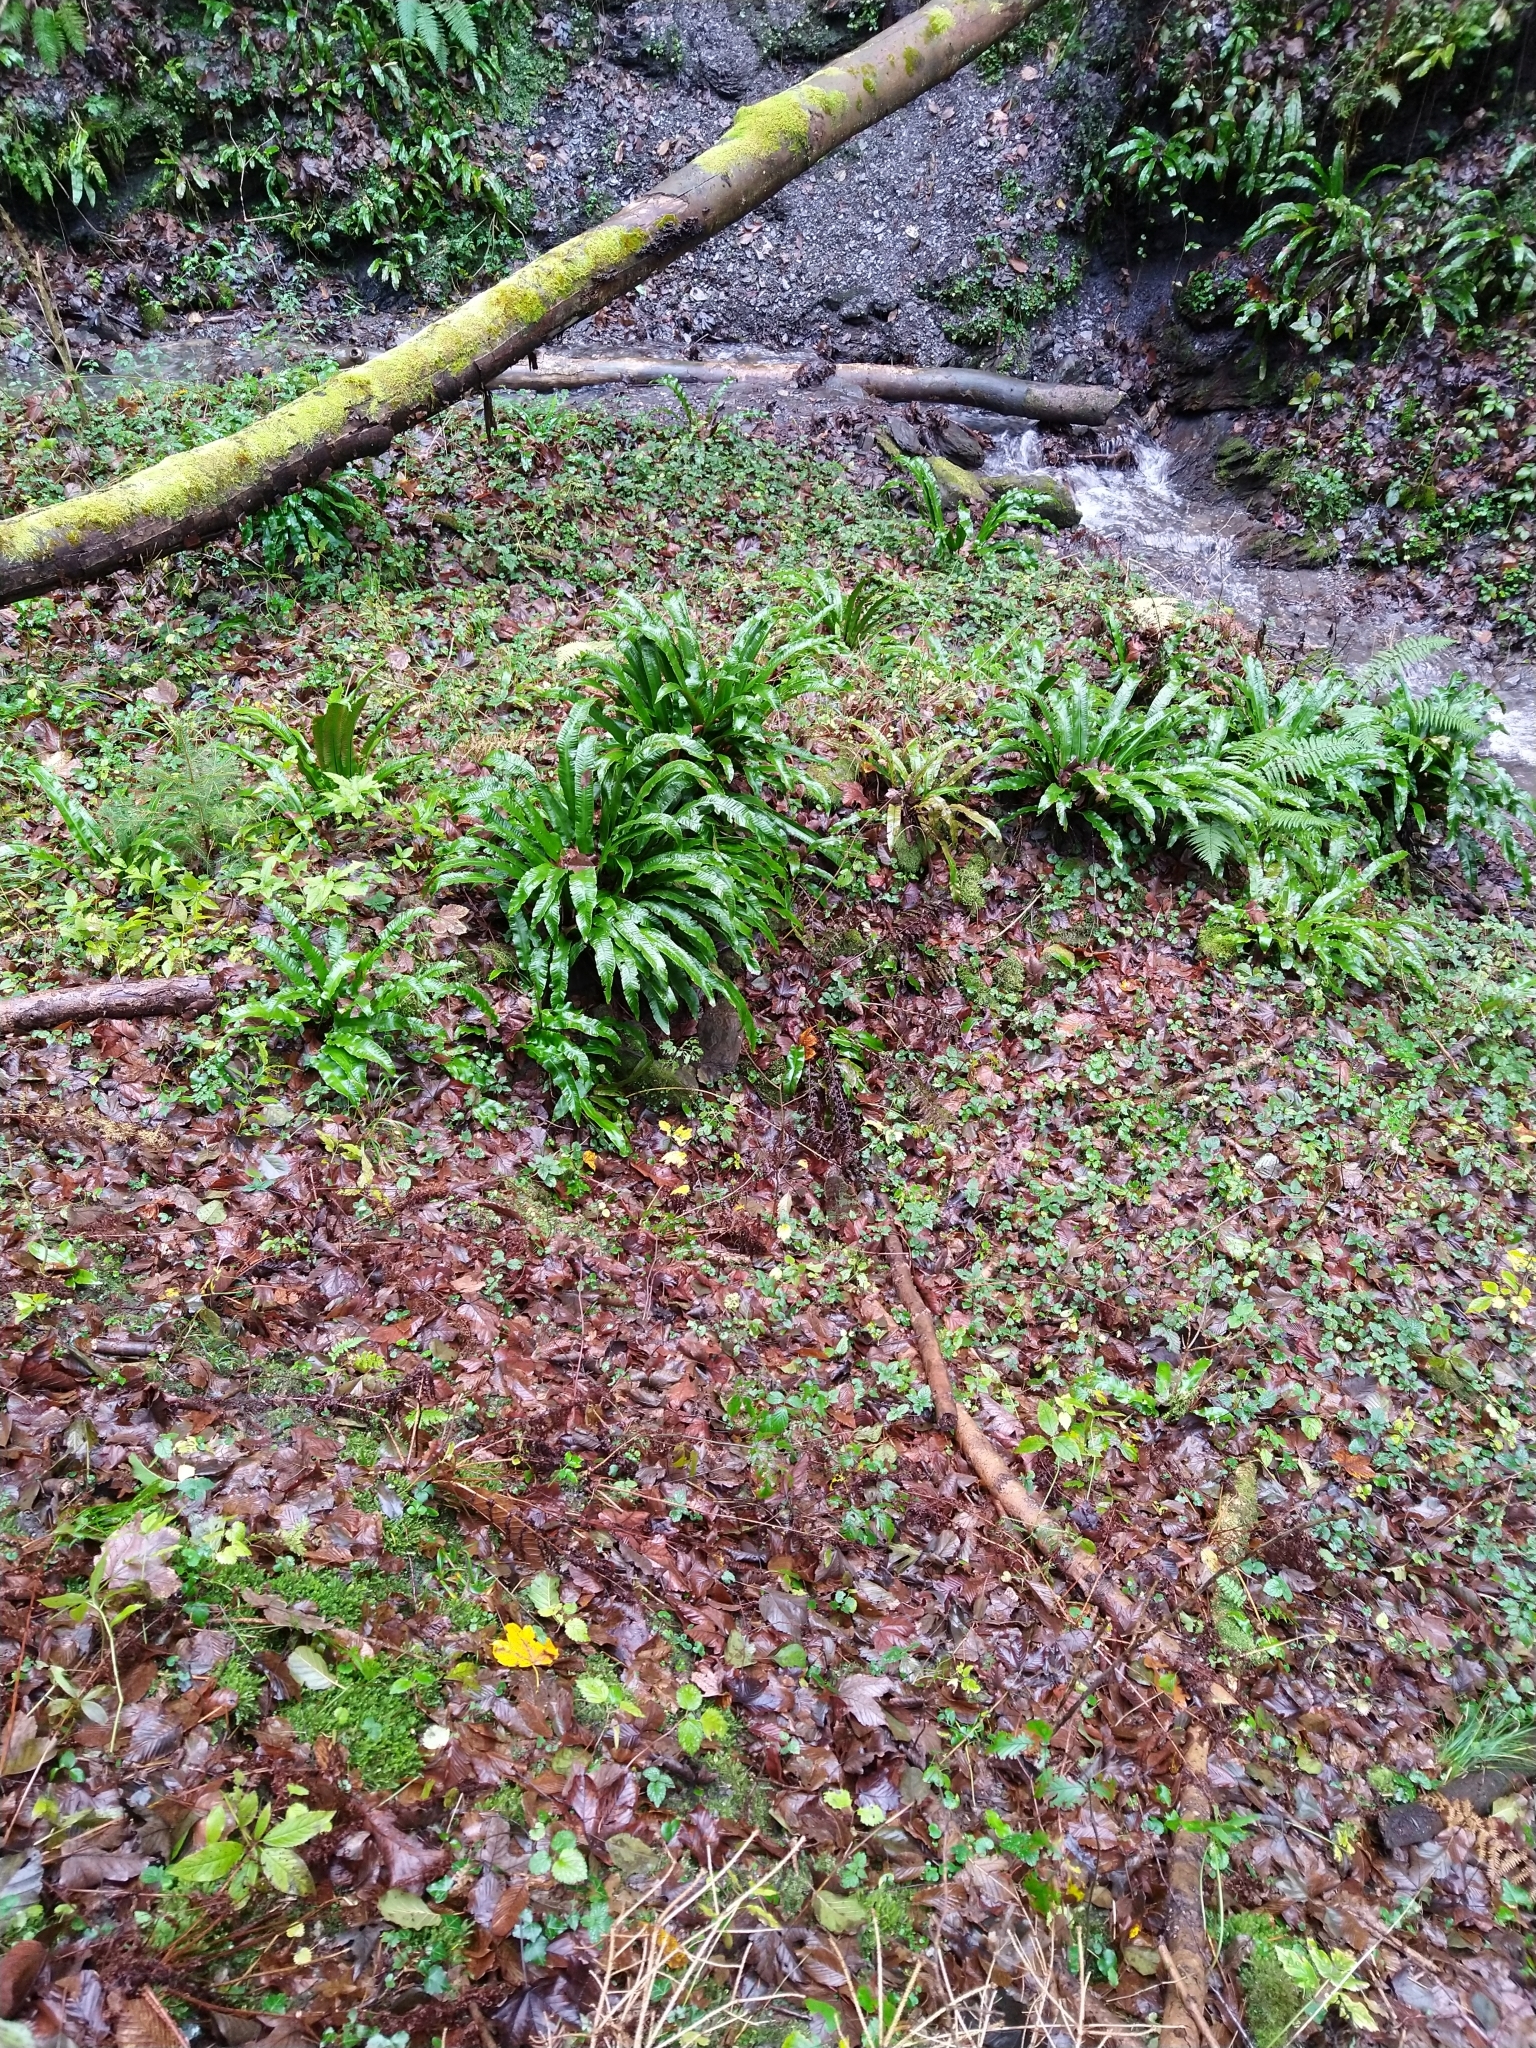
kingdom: Plantae
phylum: Tracheophyta
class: Polypodiopsida
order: Polypodiales
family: Aspleniaceae
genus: Asplenium
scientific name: Asplenium scolopendrium
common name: Hart's-tongue fern
